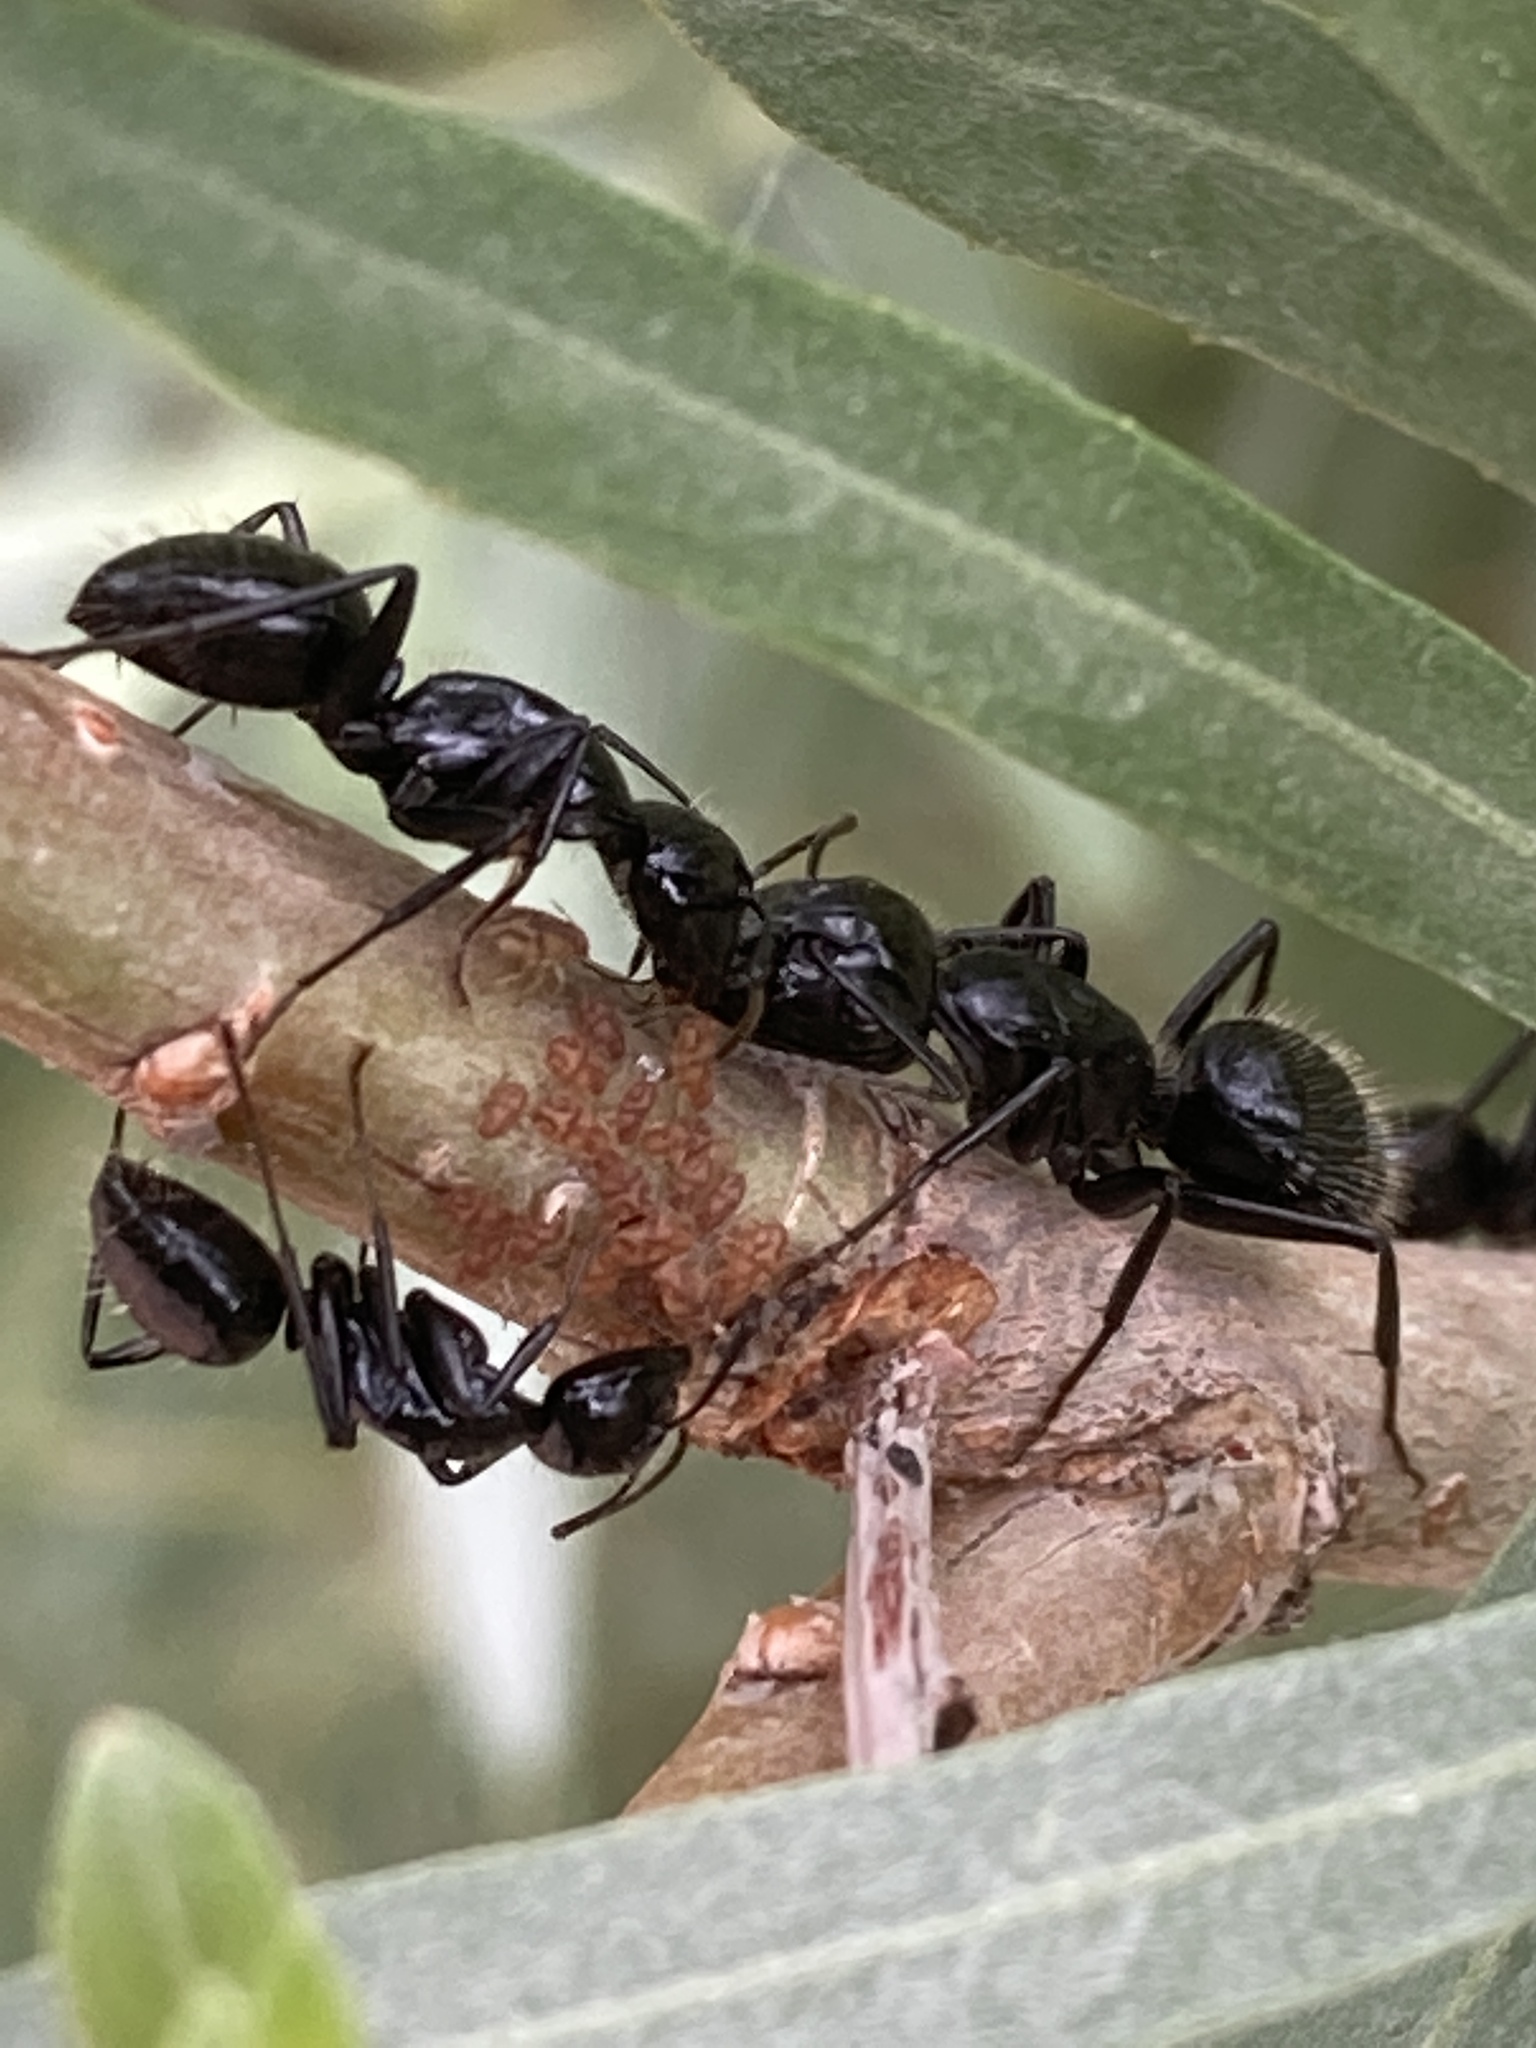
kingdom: Animalia
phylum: Arthropoda
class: Insecta
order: Hymenoptera
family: Formicidae
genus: Camponotus
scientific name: Camponotus
